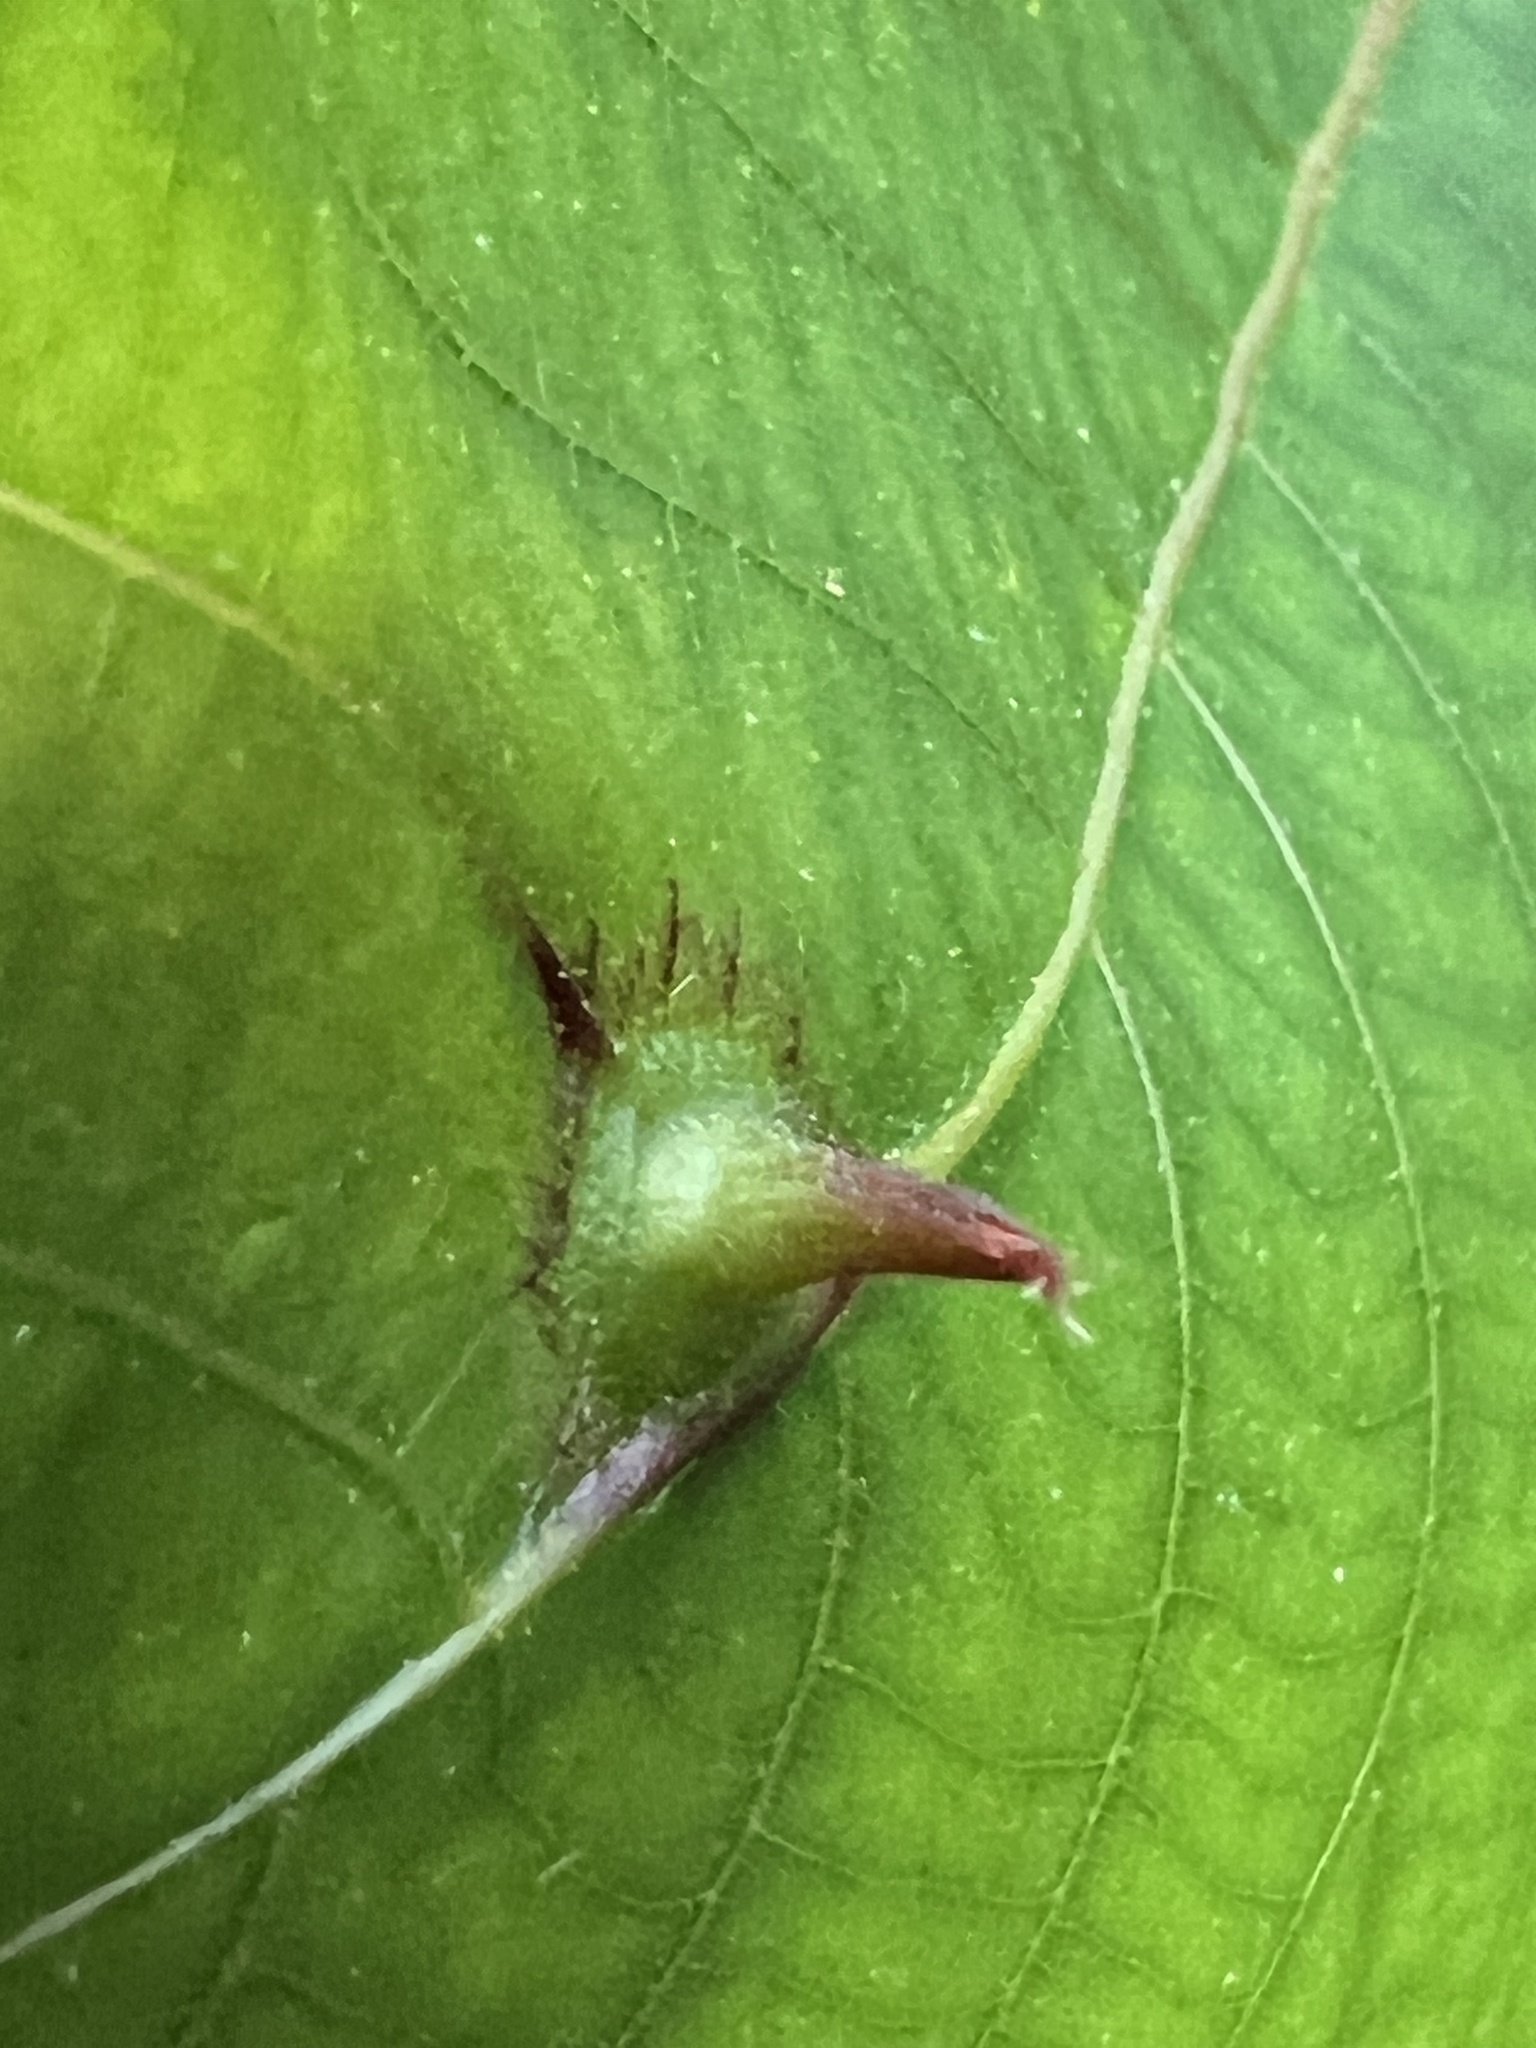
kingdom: Animalia
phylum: Arthropoda
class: Insecta
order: Hemiptera
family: Phylloxeridae
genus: Phylloxera
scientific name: Phylloxera caryaesepta
